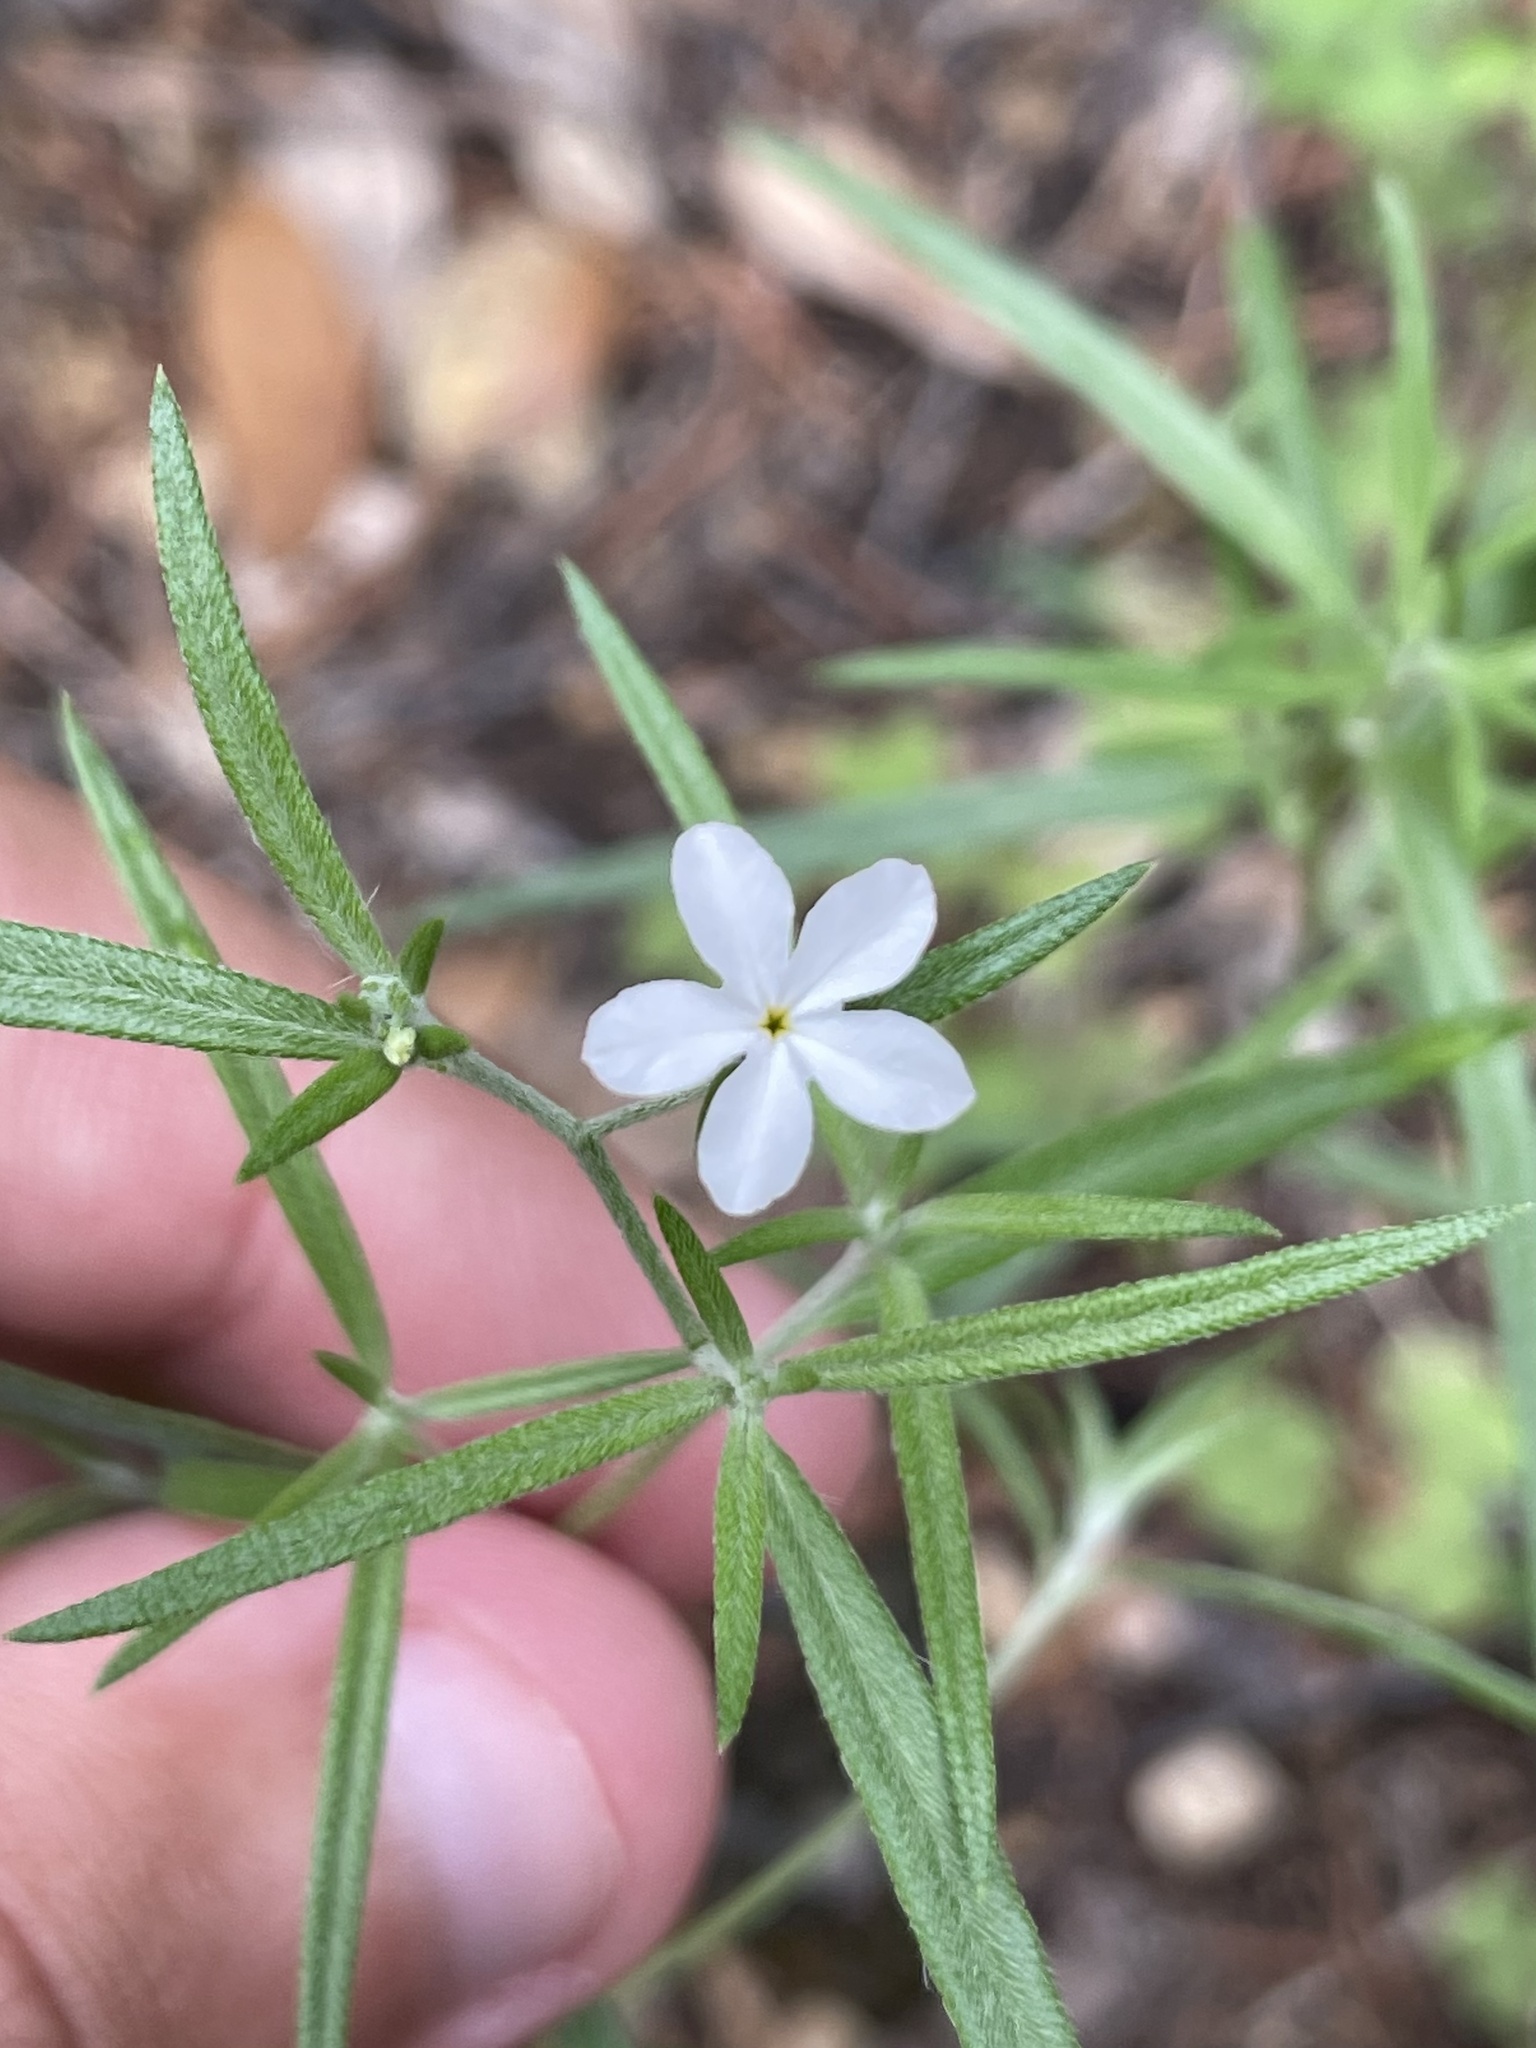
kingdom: Plantae
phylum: Tracheophyta
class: Magnoliopsida
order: Boraginales
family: Heliotropiaceae
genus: Euploca
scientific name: Euploca tenella
